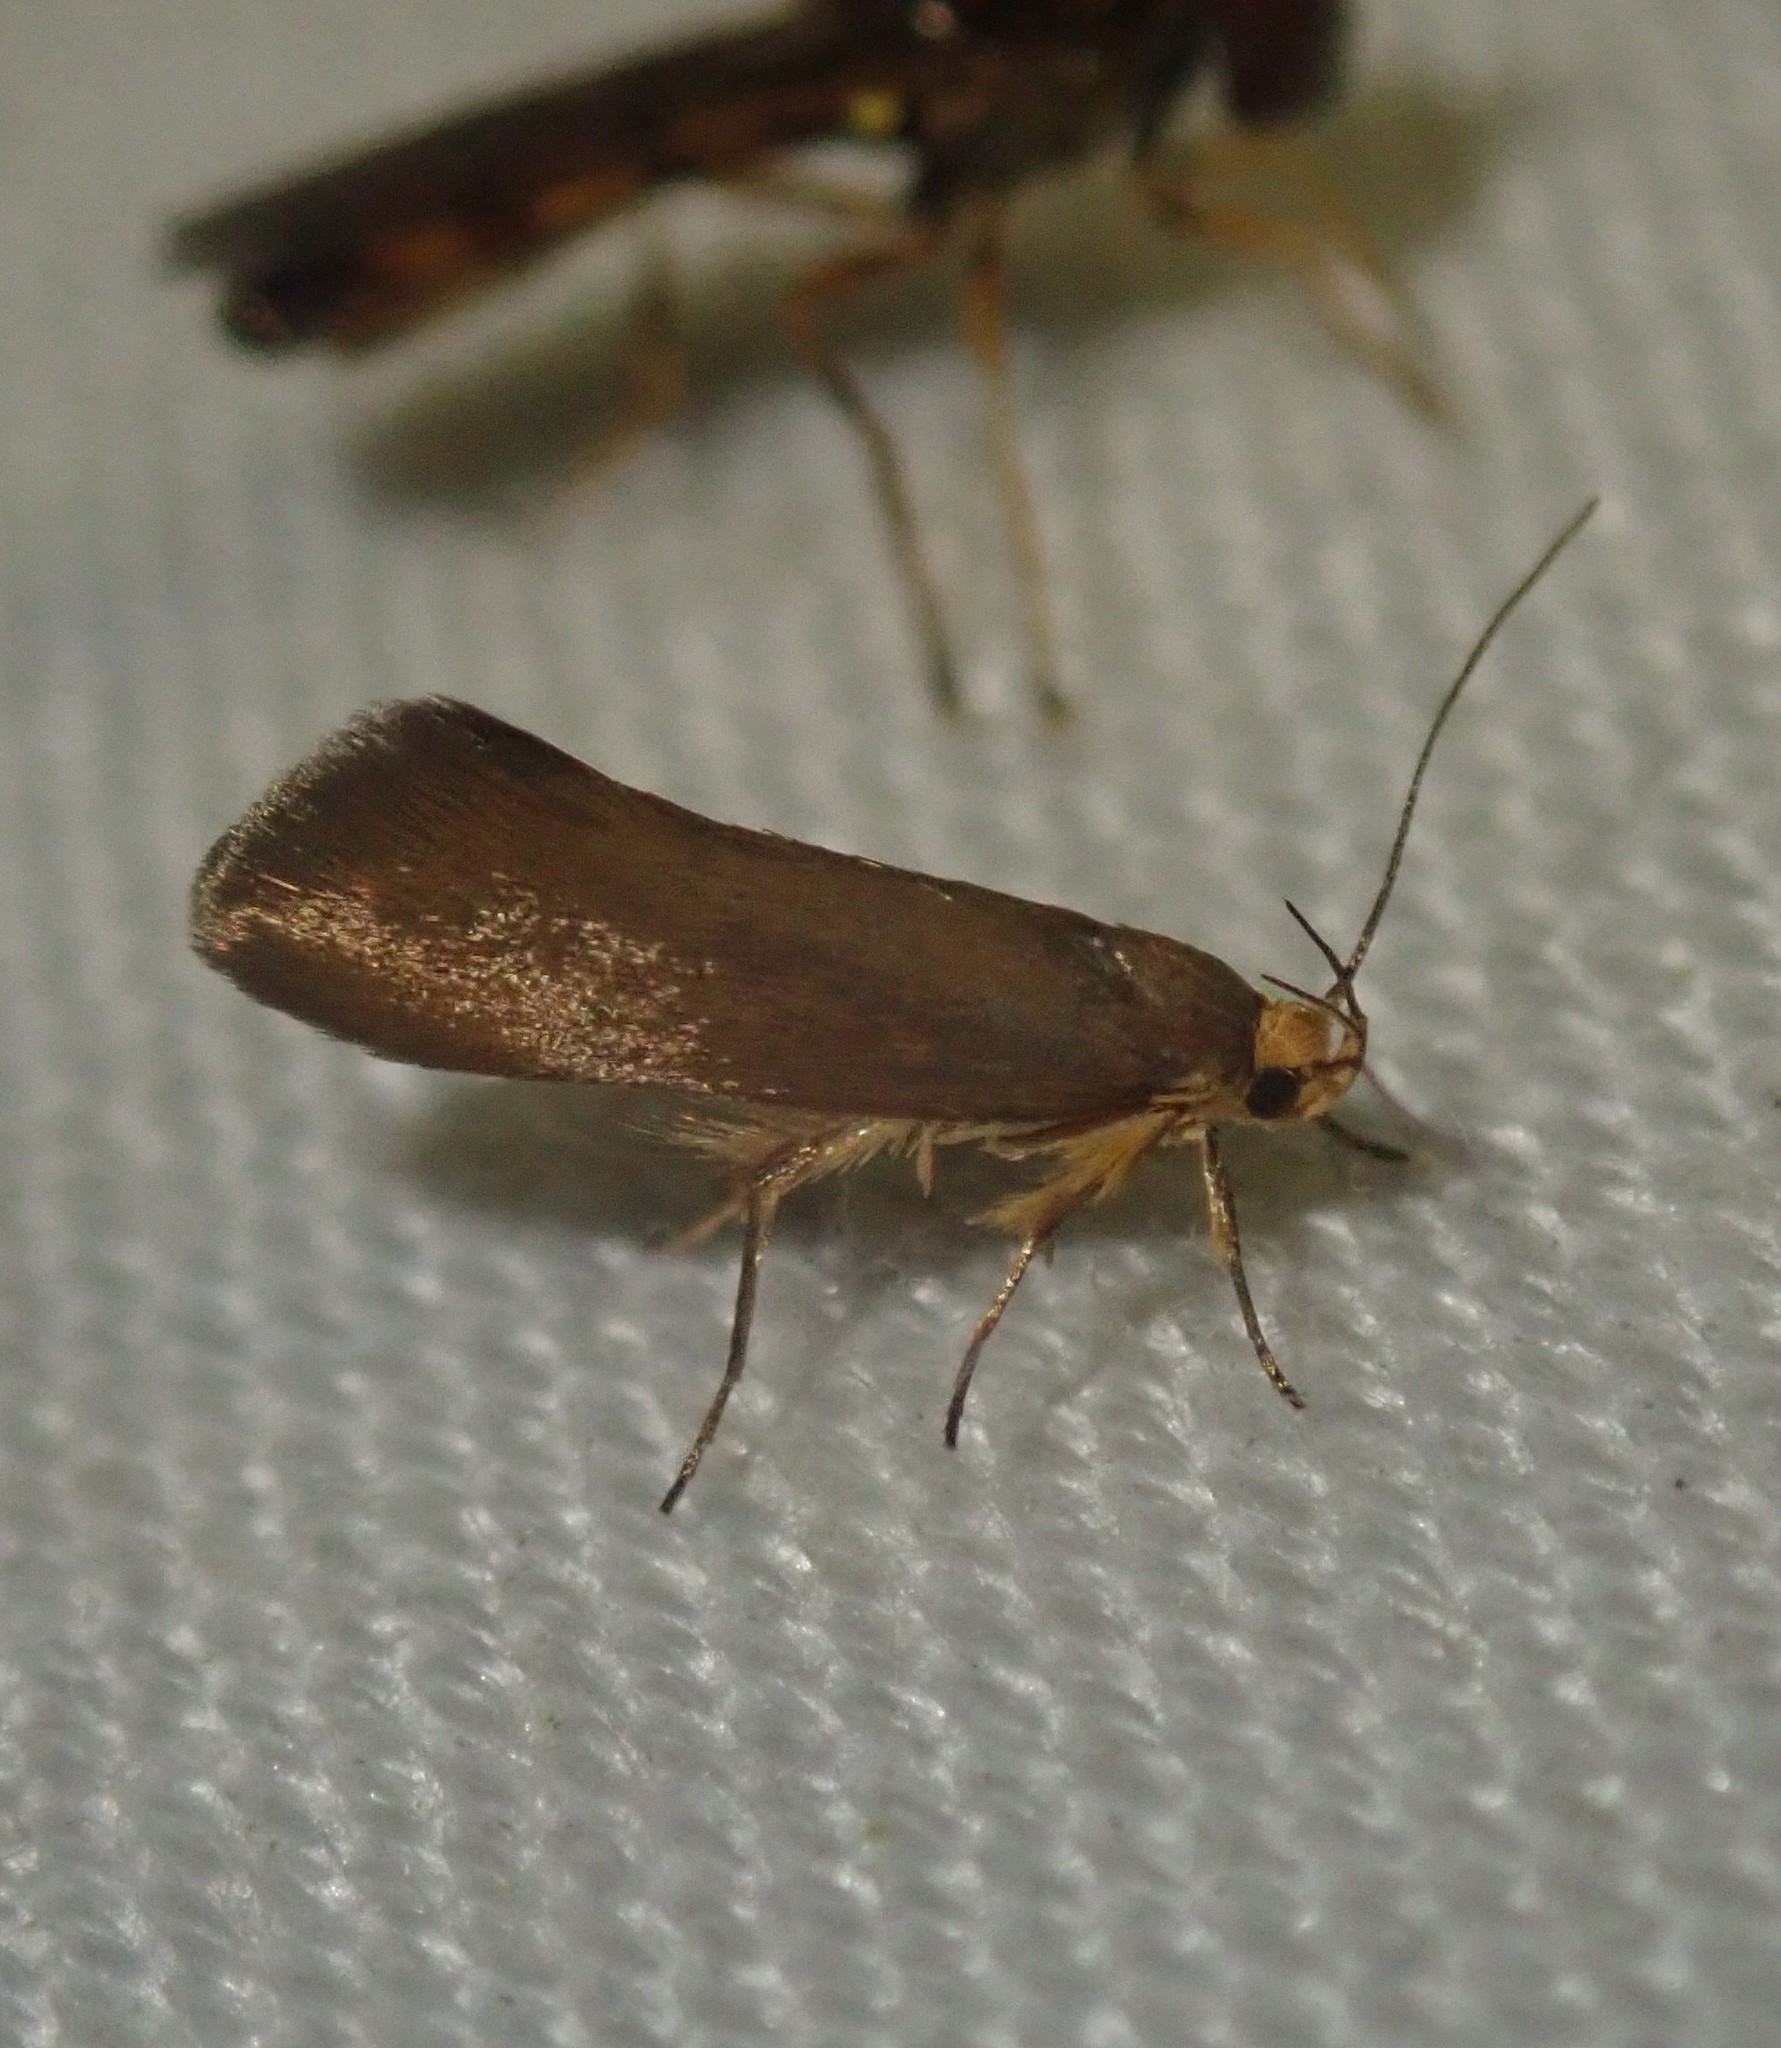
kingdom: Animalia
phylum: Arthropoda
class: Insecta
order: Lepidoptera
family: Oecophoridae
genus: Borkhausenia
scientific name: Borkhausenia Crassa unitella
